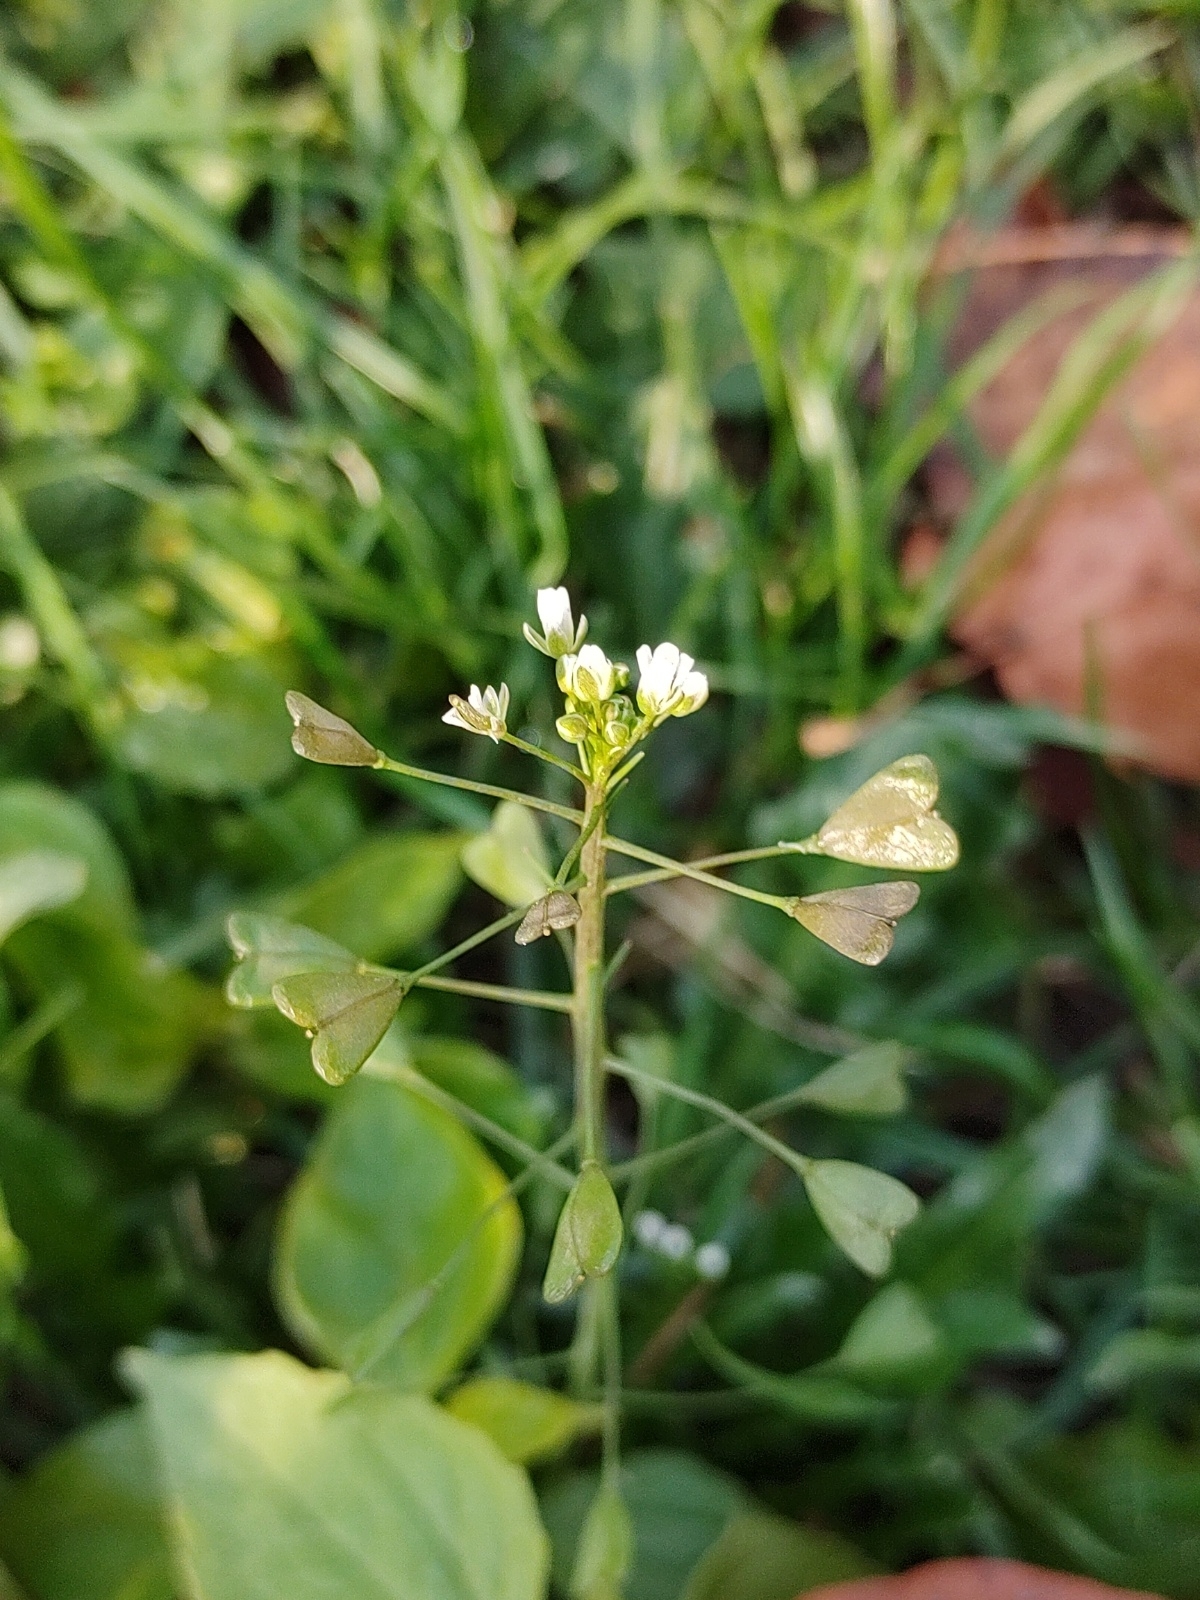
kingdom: Plantae
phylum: Tracheophyta
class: Magnoliopsida
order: Brassicales
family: Brassicaceae
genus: Capsella
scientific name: Capsella bursa-pastoris
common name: Shepherd's purse
